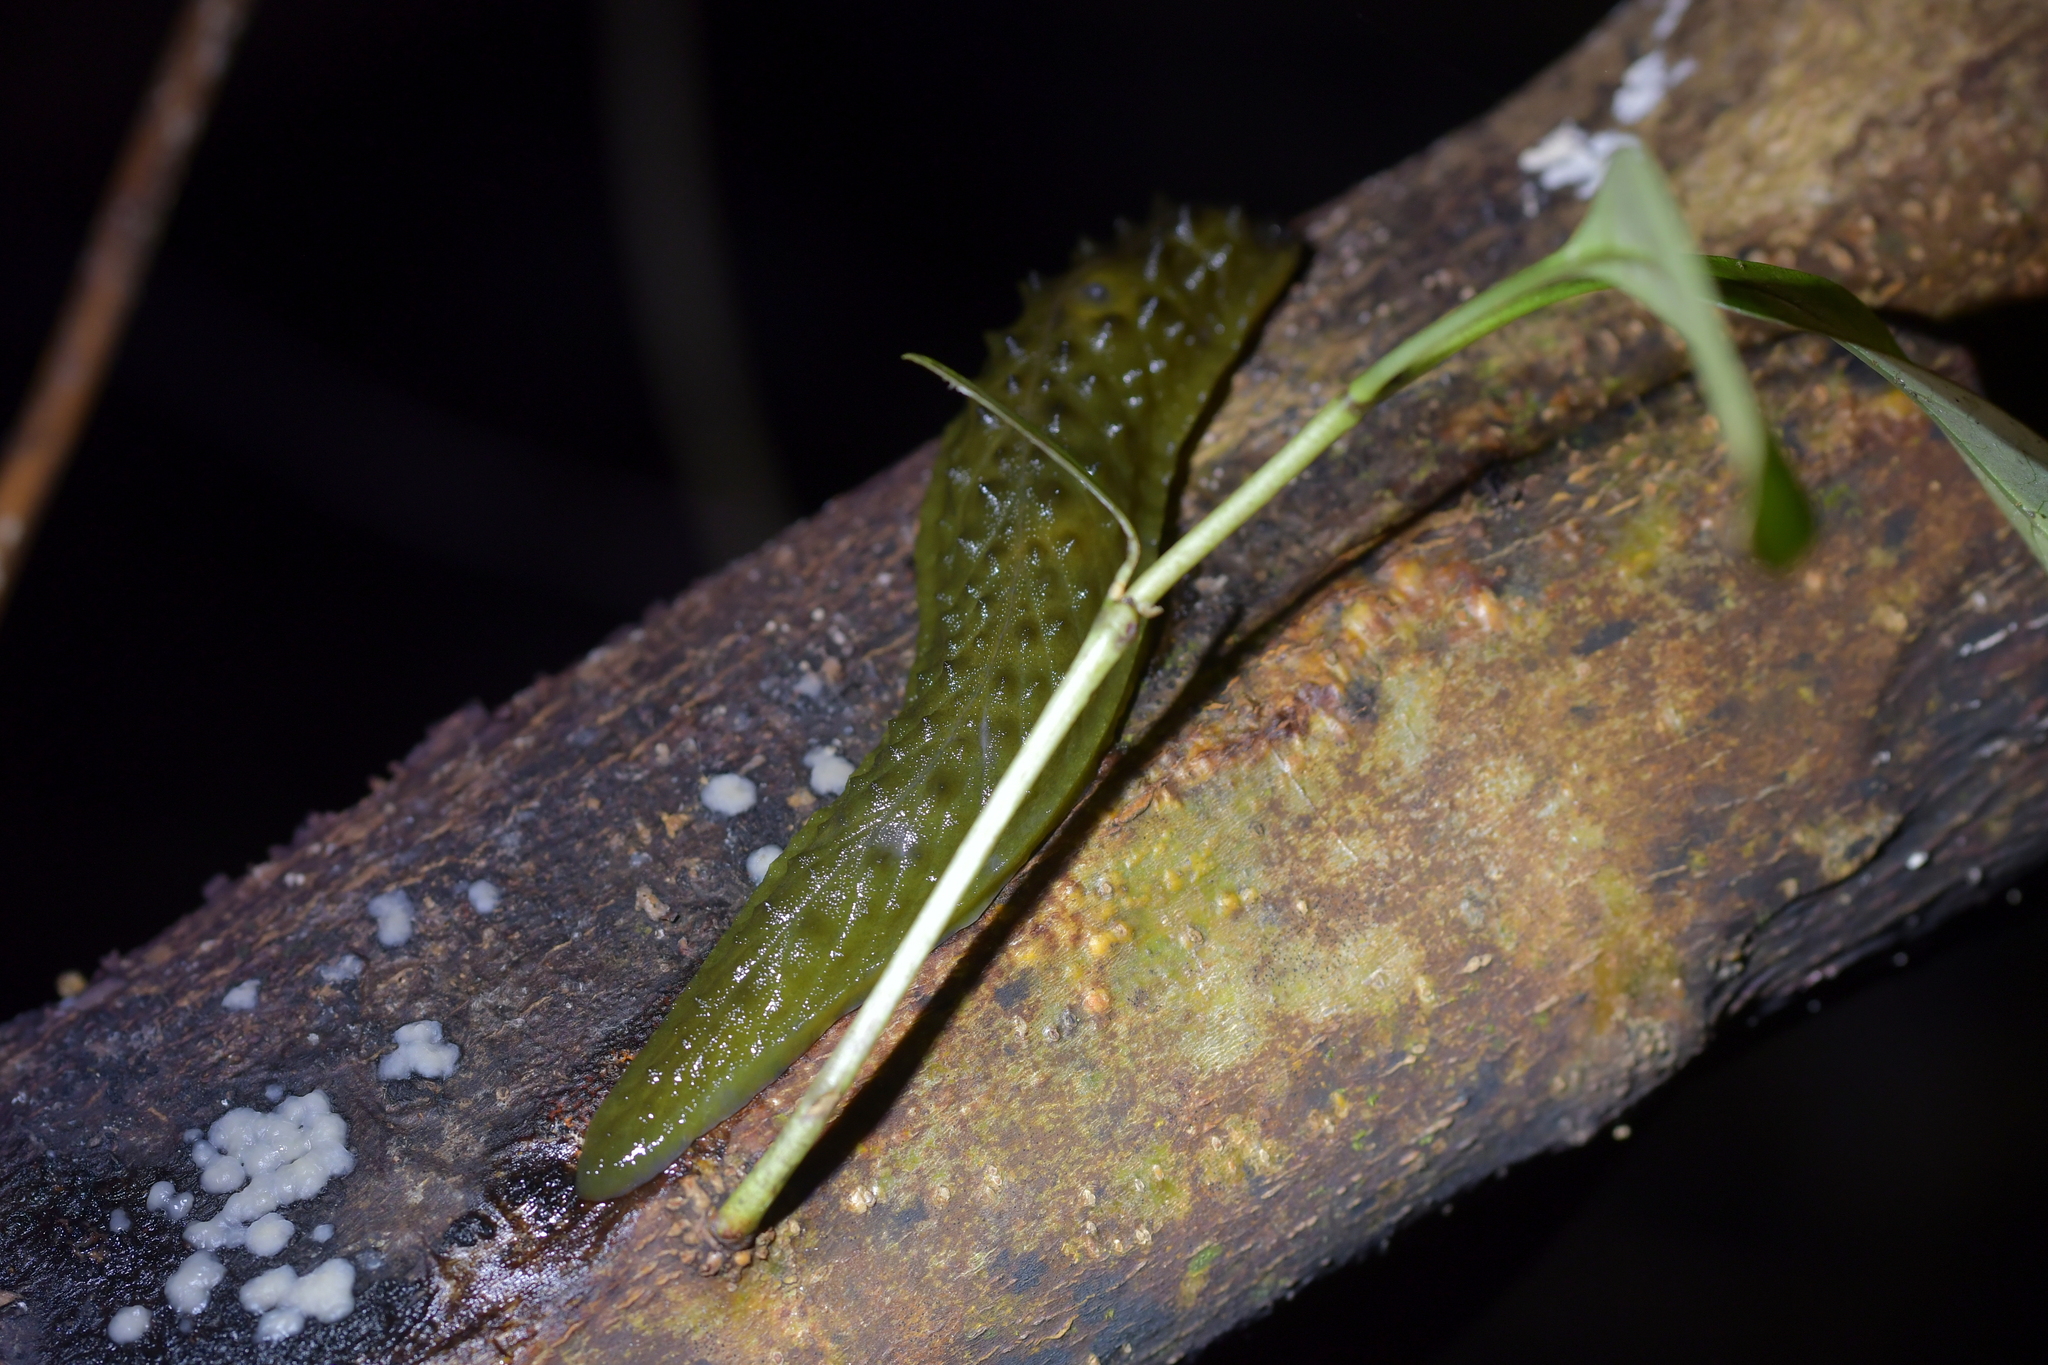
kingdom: Animalia
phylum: Mollusca
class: Gastropoda
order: Stylommatophora
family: Athoracophoridae
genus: Athoracophorus
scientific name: Athoracophorus papillatus
